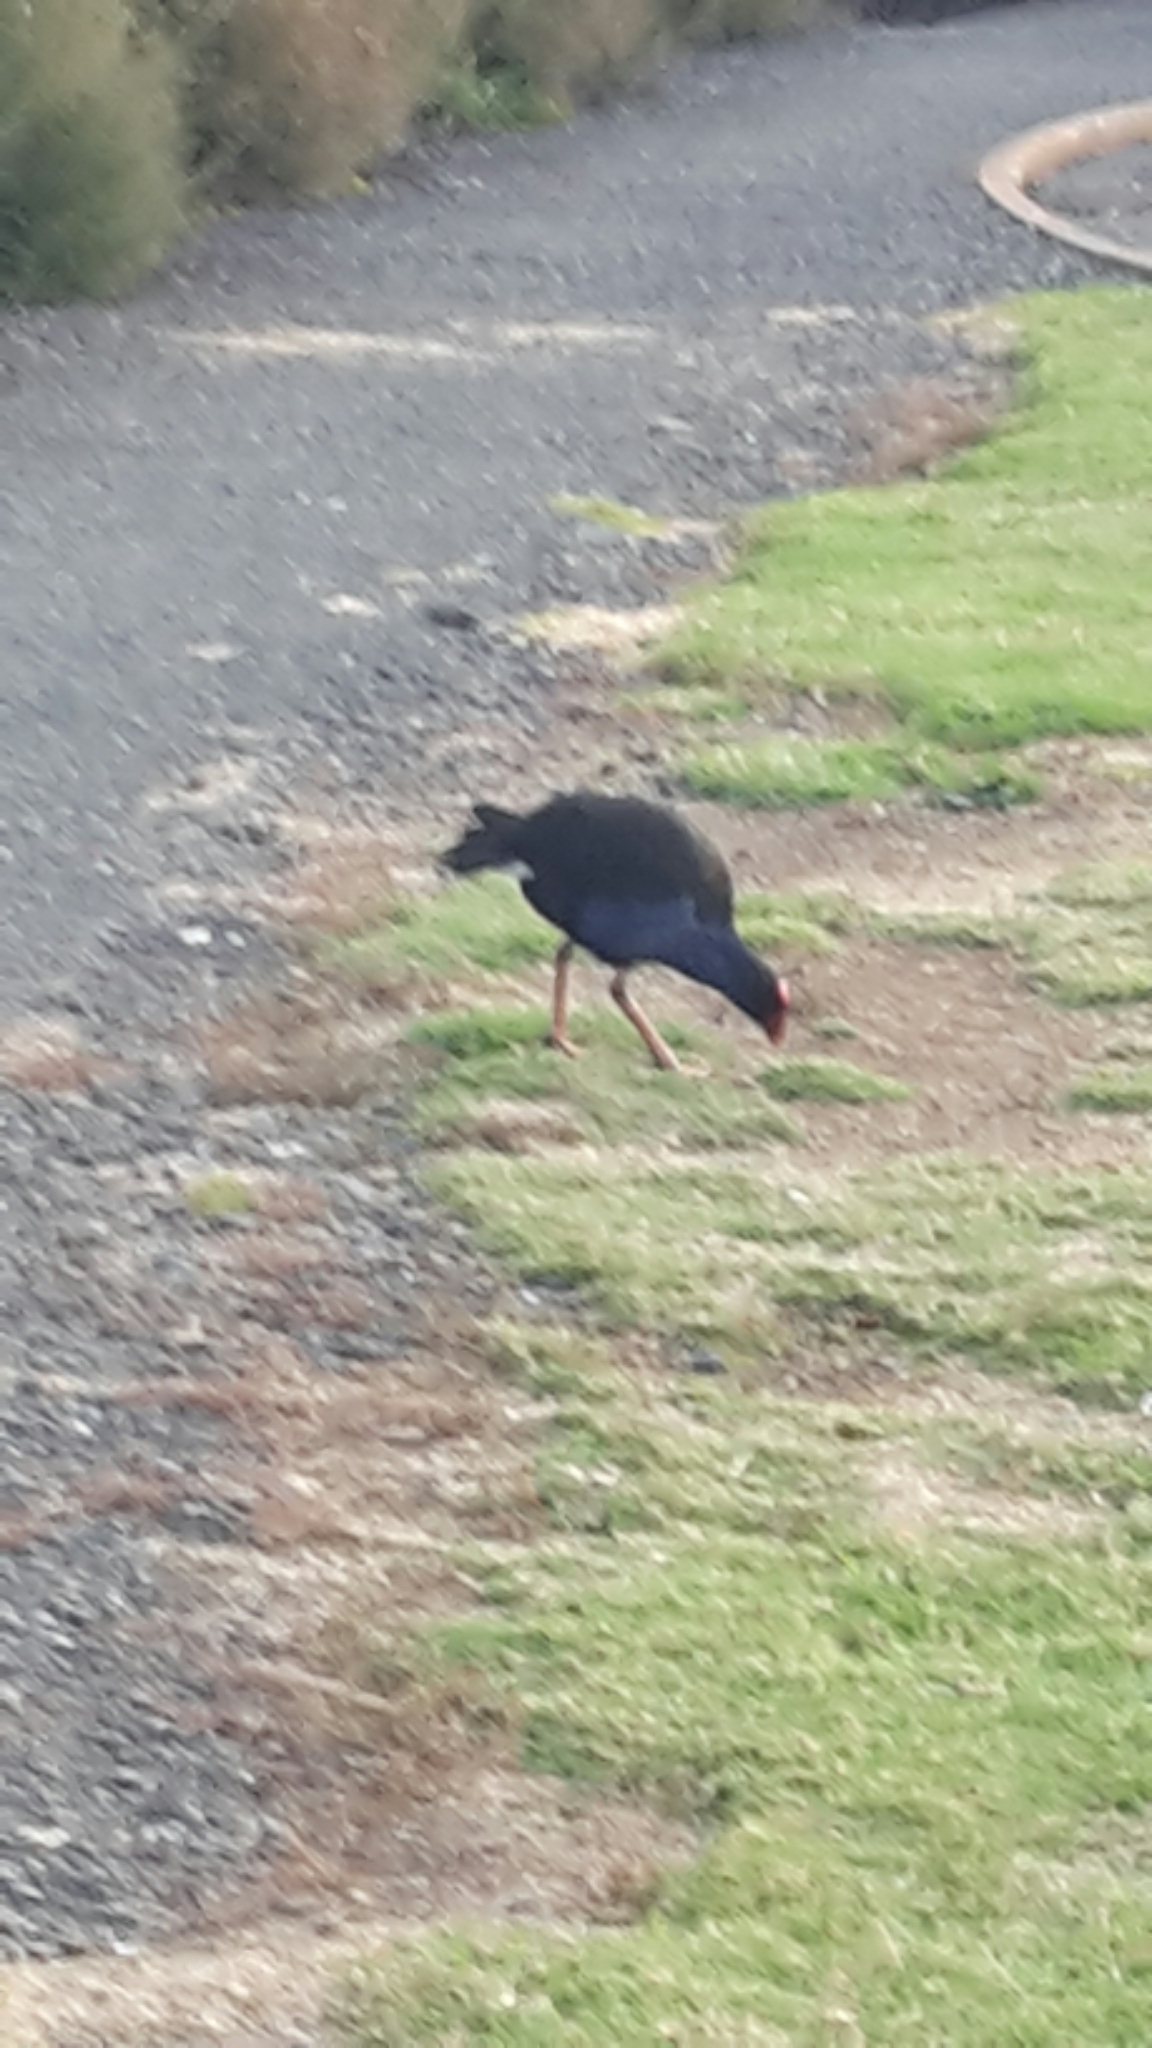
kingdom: Animalia
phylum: Chordata
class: Aves
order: Gruiformes
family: Rallidae
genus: Porphyrio
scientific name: Porphyrio melanotus
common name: Australasian swamphen
